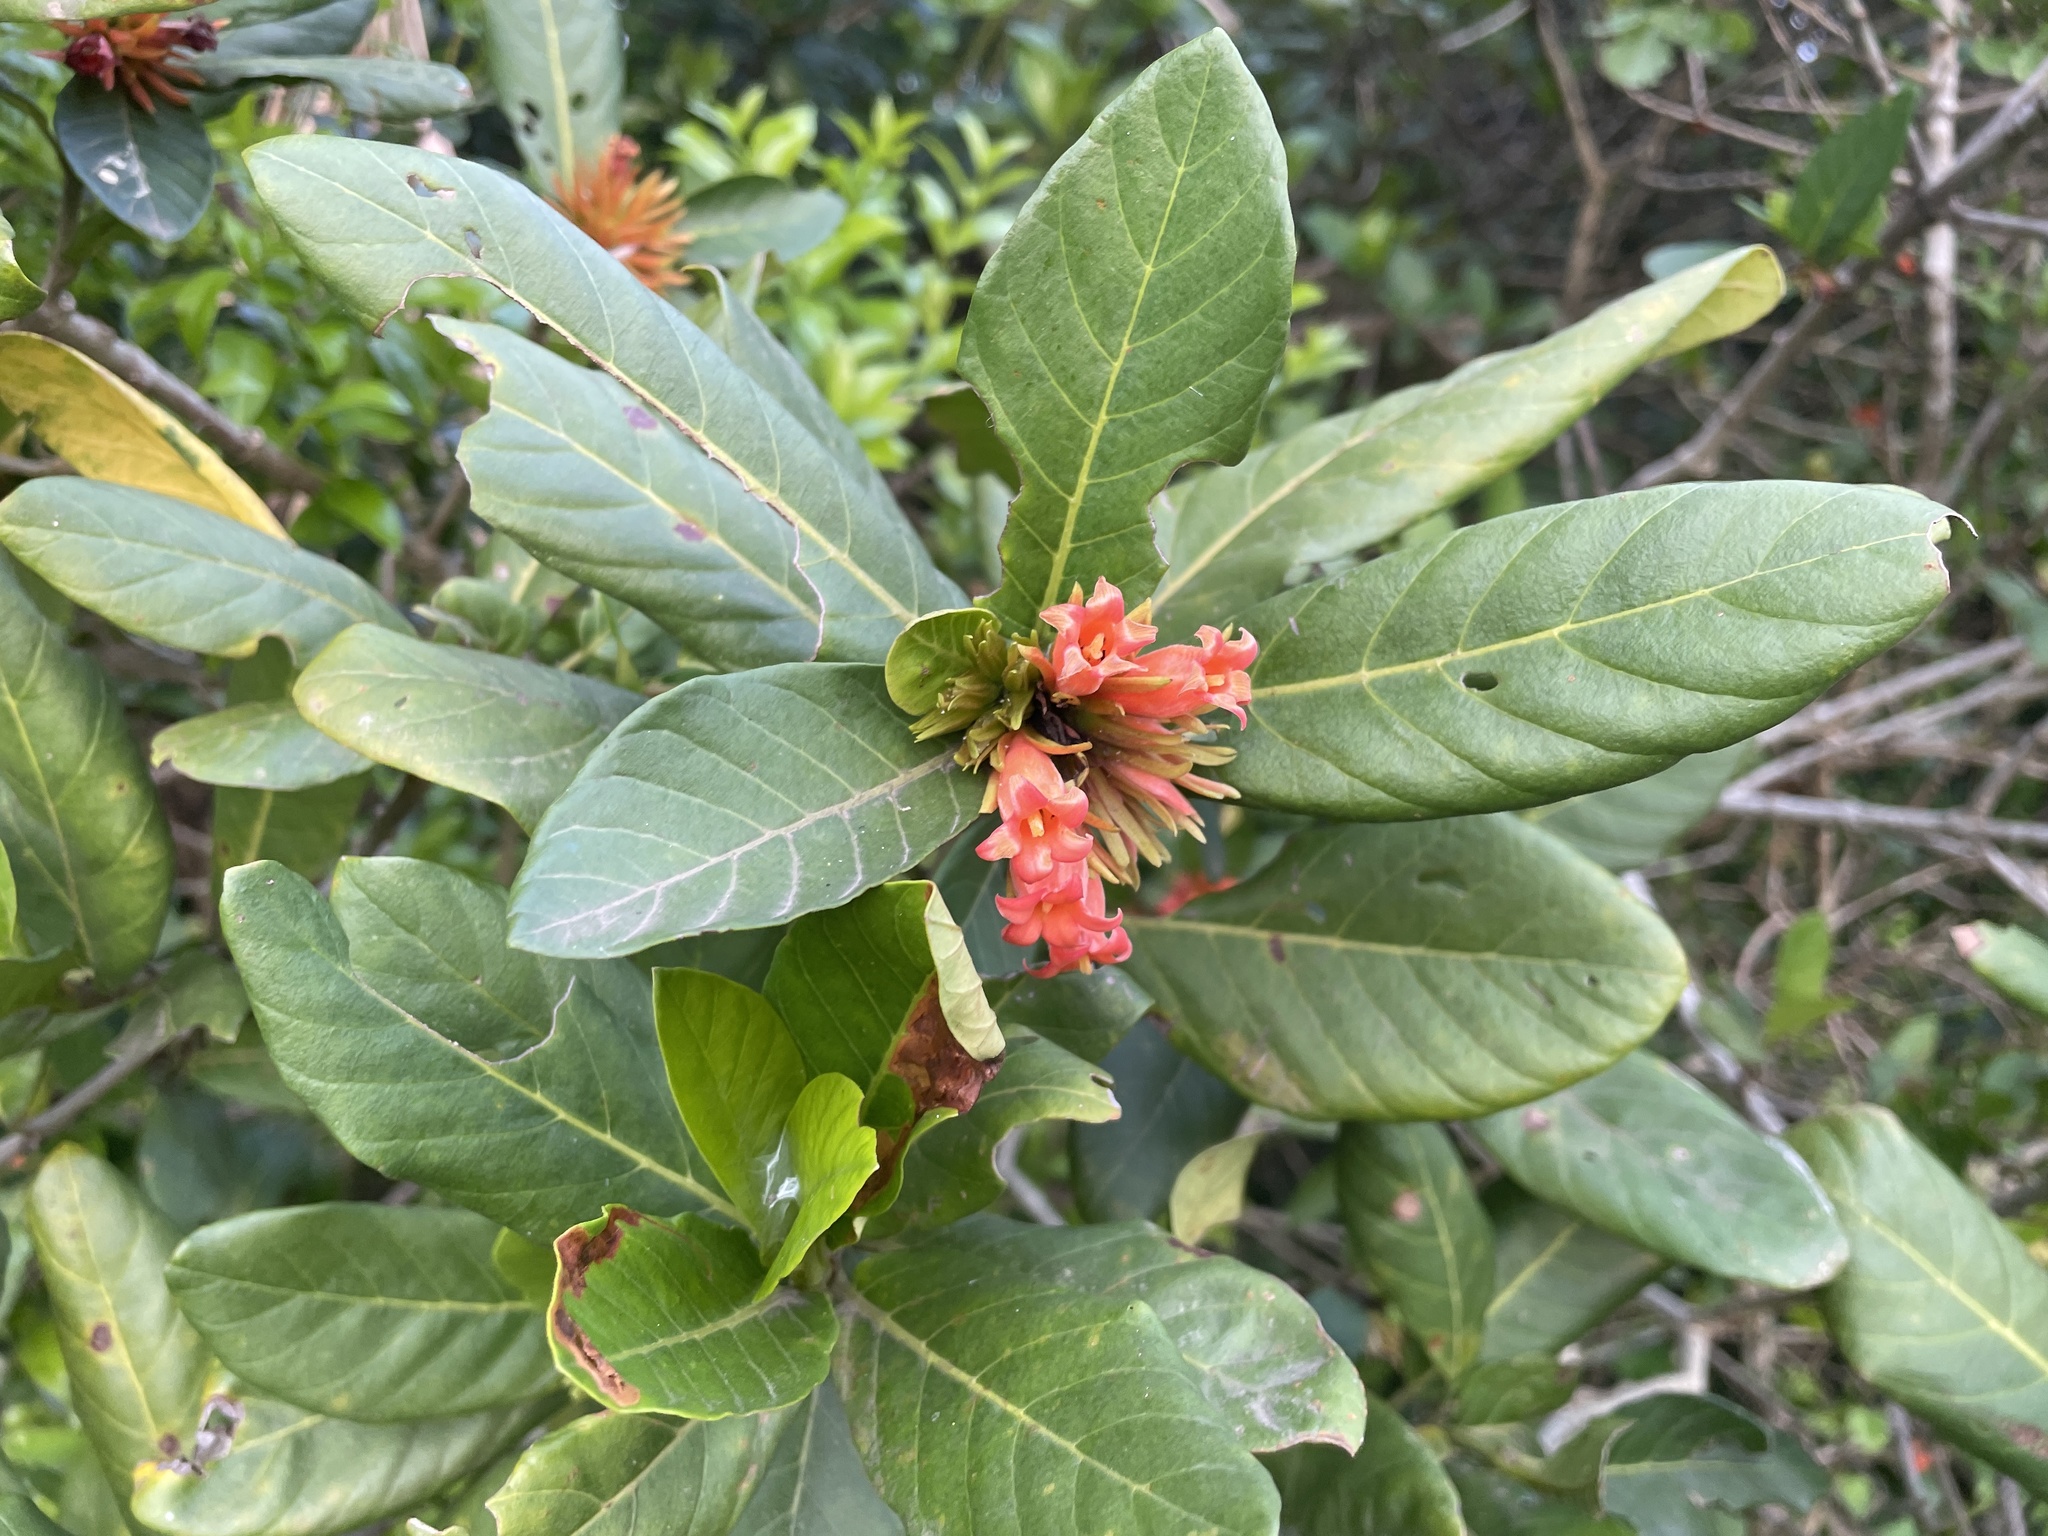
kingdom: Plantae
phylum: Tracheophyta
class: Magnoliopsida
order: Gentianales
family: Rubiaceae
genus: Burchellia
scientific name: Burchellia bubalina
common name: Wild pomegranate
